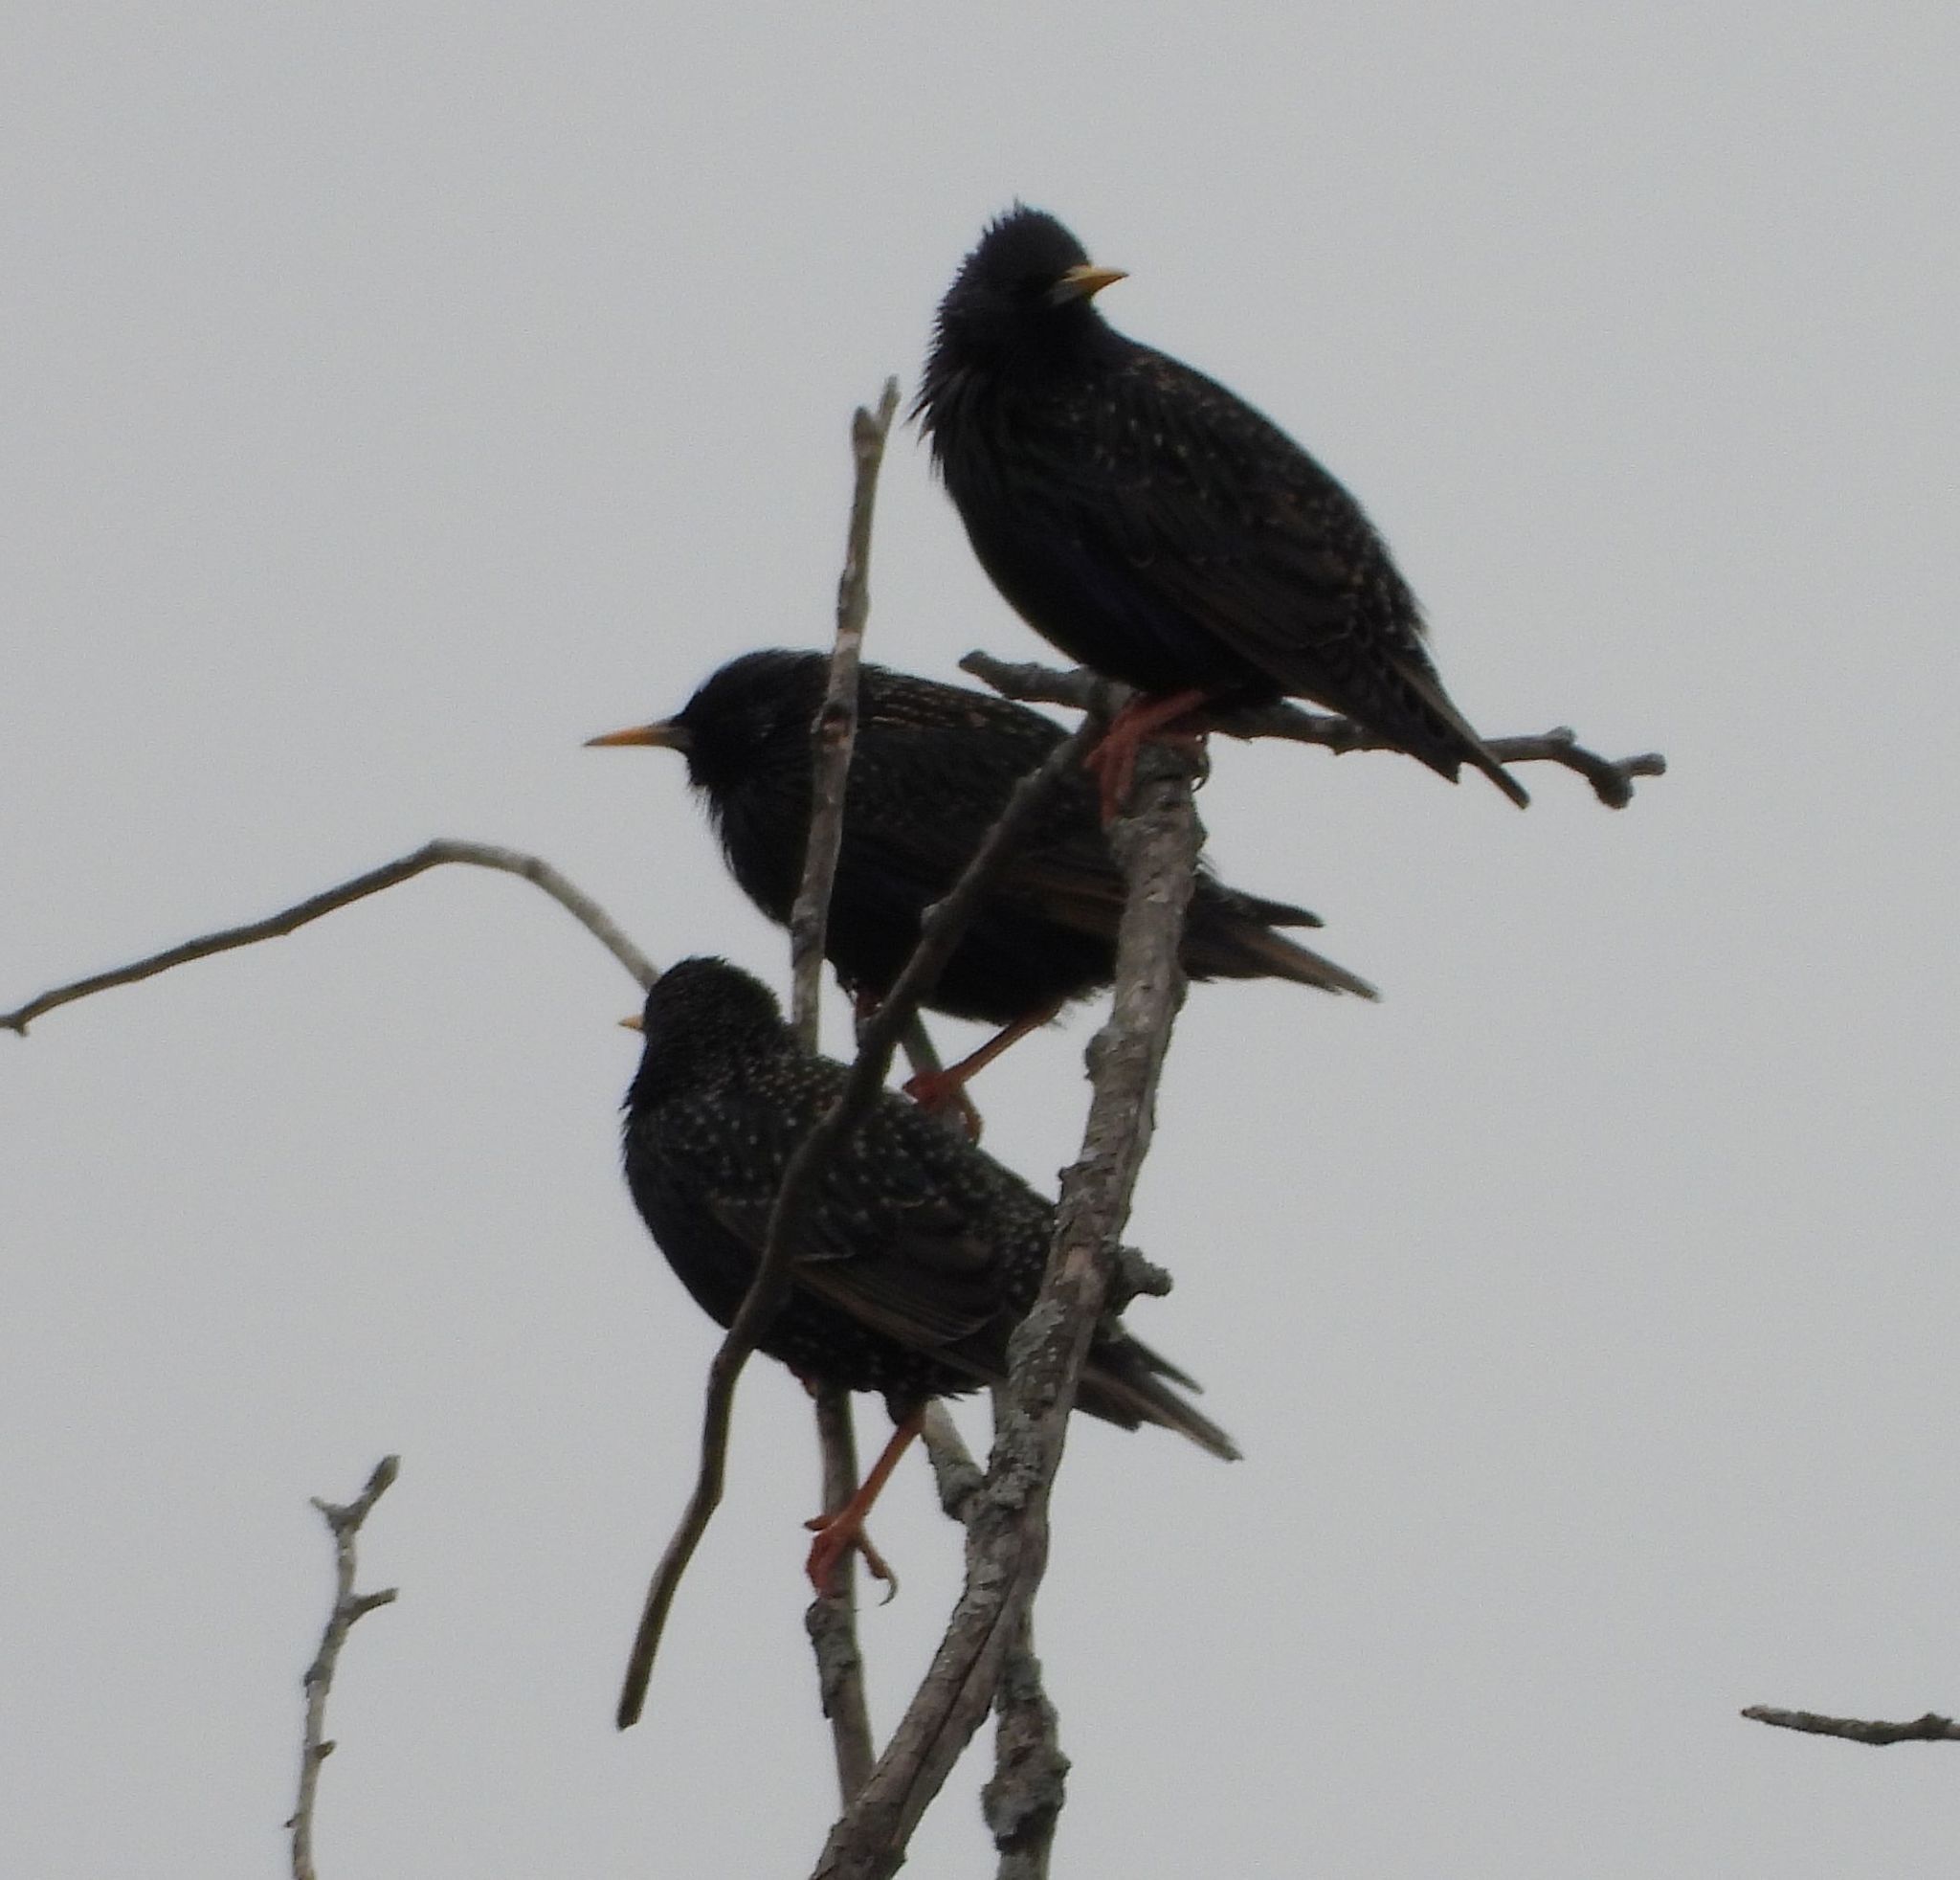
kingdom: Animalia
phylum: Chordata
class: Aves
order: Passeriformes
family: Sturnidae
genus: Sturnus
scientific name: Sturnus vulgaris
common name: Common starling
